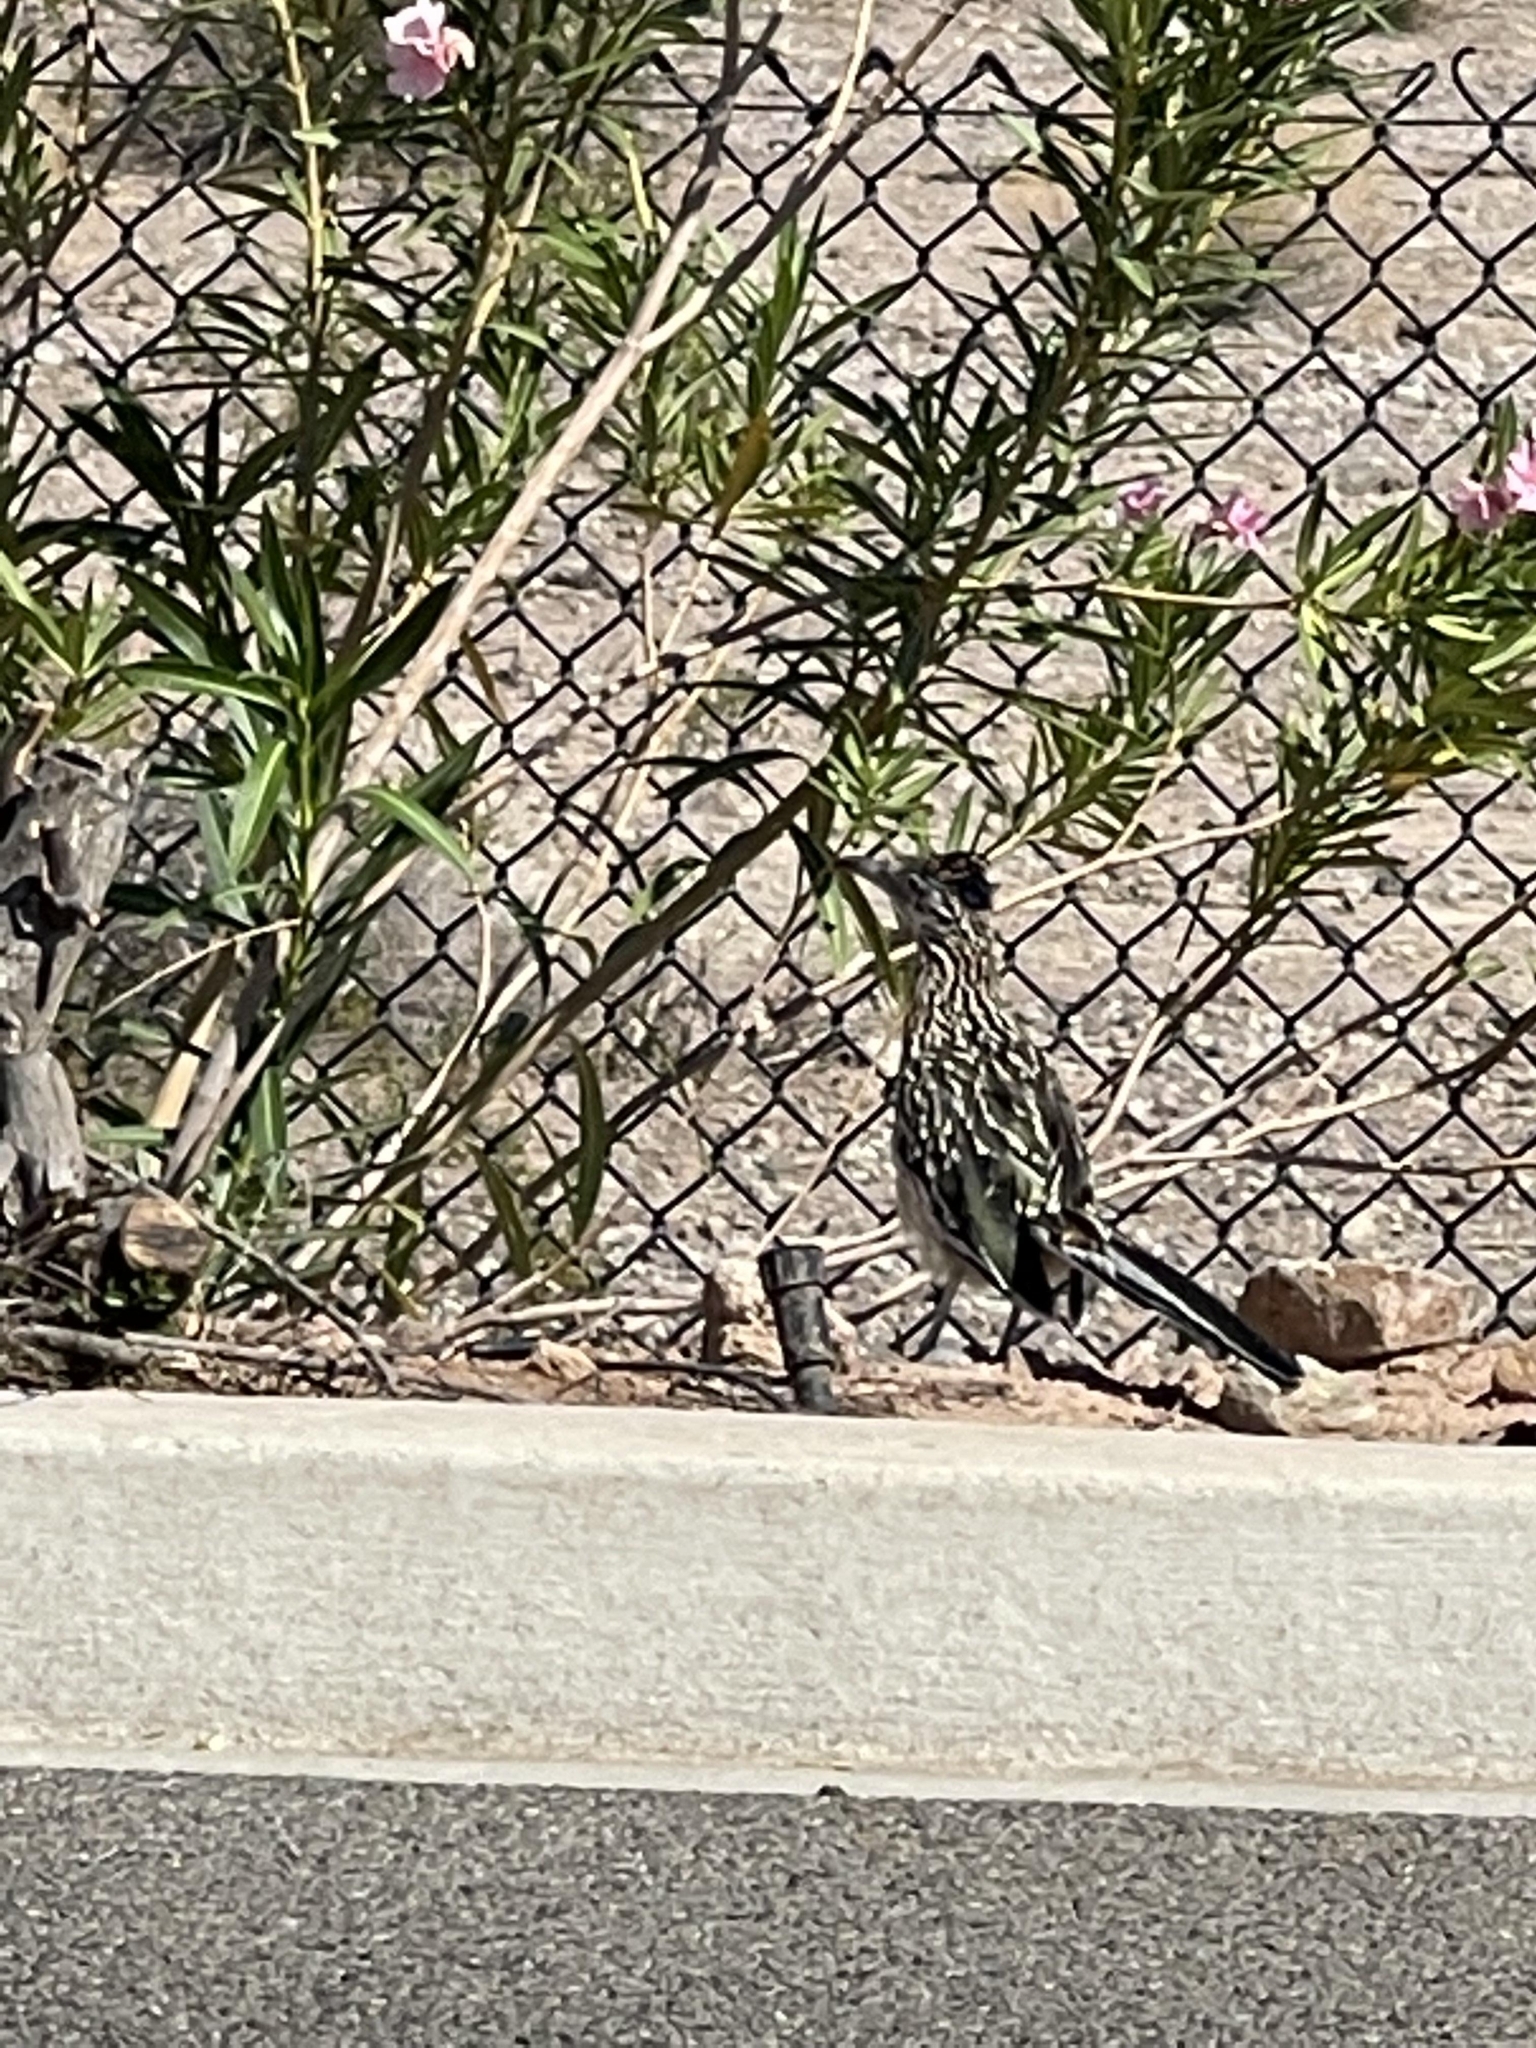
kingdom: Animalia
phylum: Chordata
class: Aves
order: Cuculiformes
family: Cuculidae
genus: Geococcyx
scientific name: Geococcyx californianus
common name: Greater roadrunner
